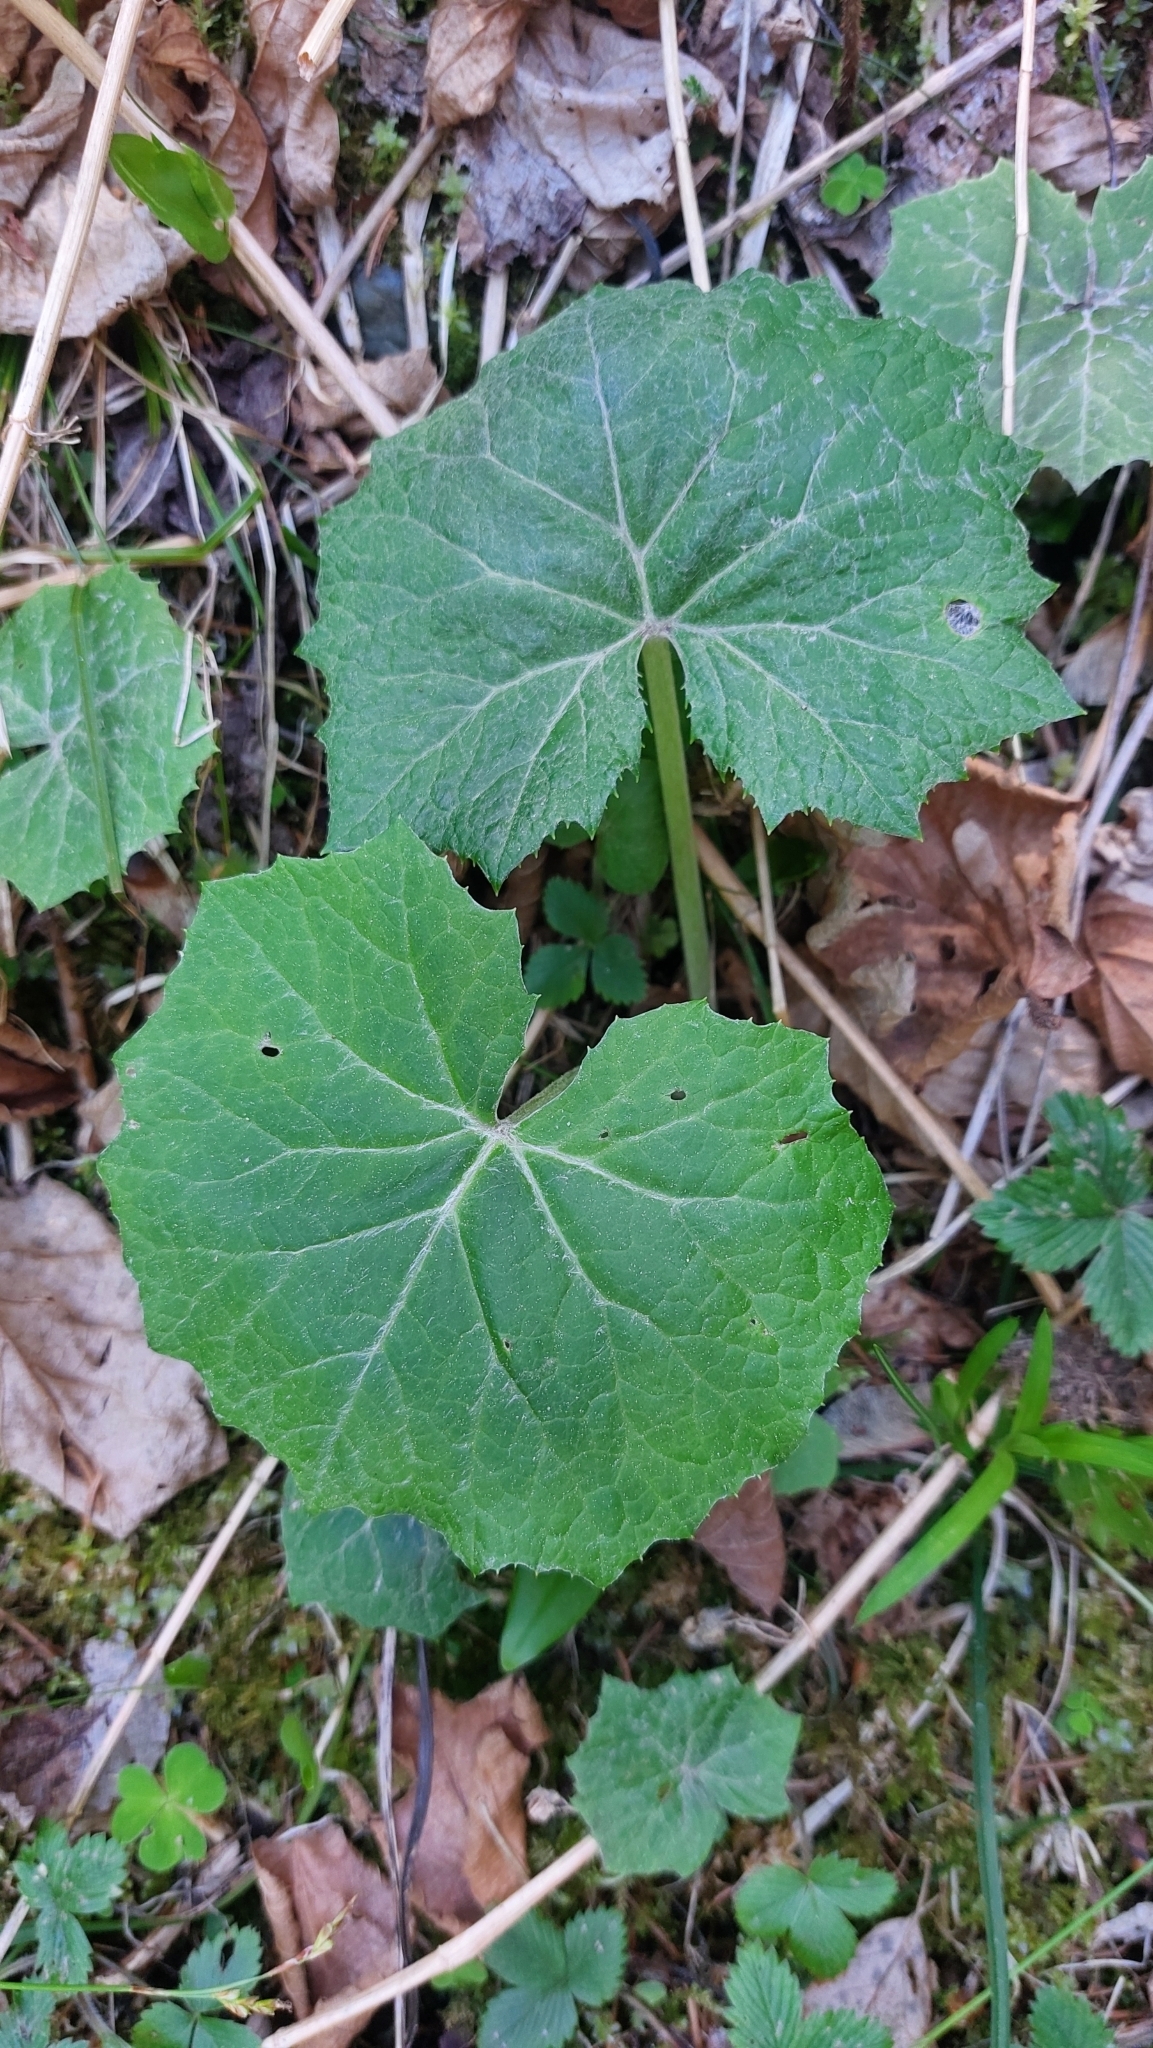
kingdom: Plantae
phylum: Tracheophyta
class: Magnoliopsida
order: Asterales
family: Asteraceae
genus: Petasites
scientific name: Petasites albus
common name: White butterbur
